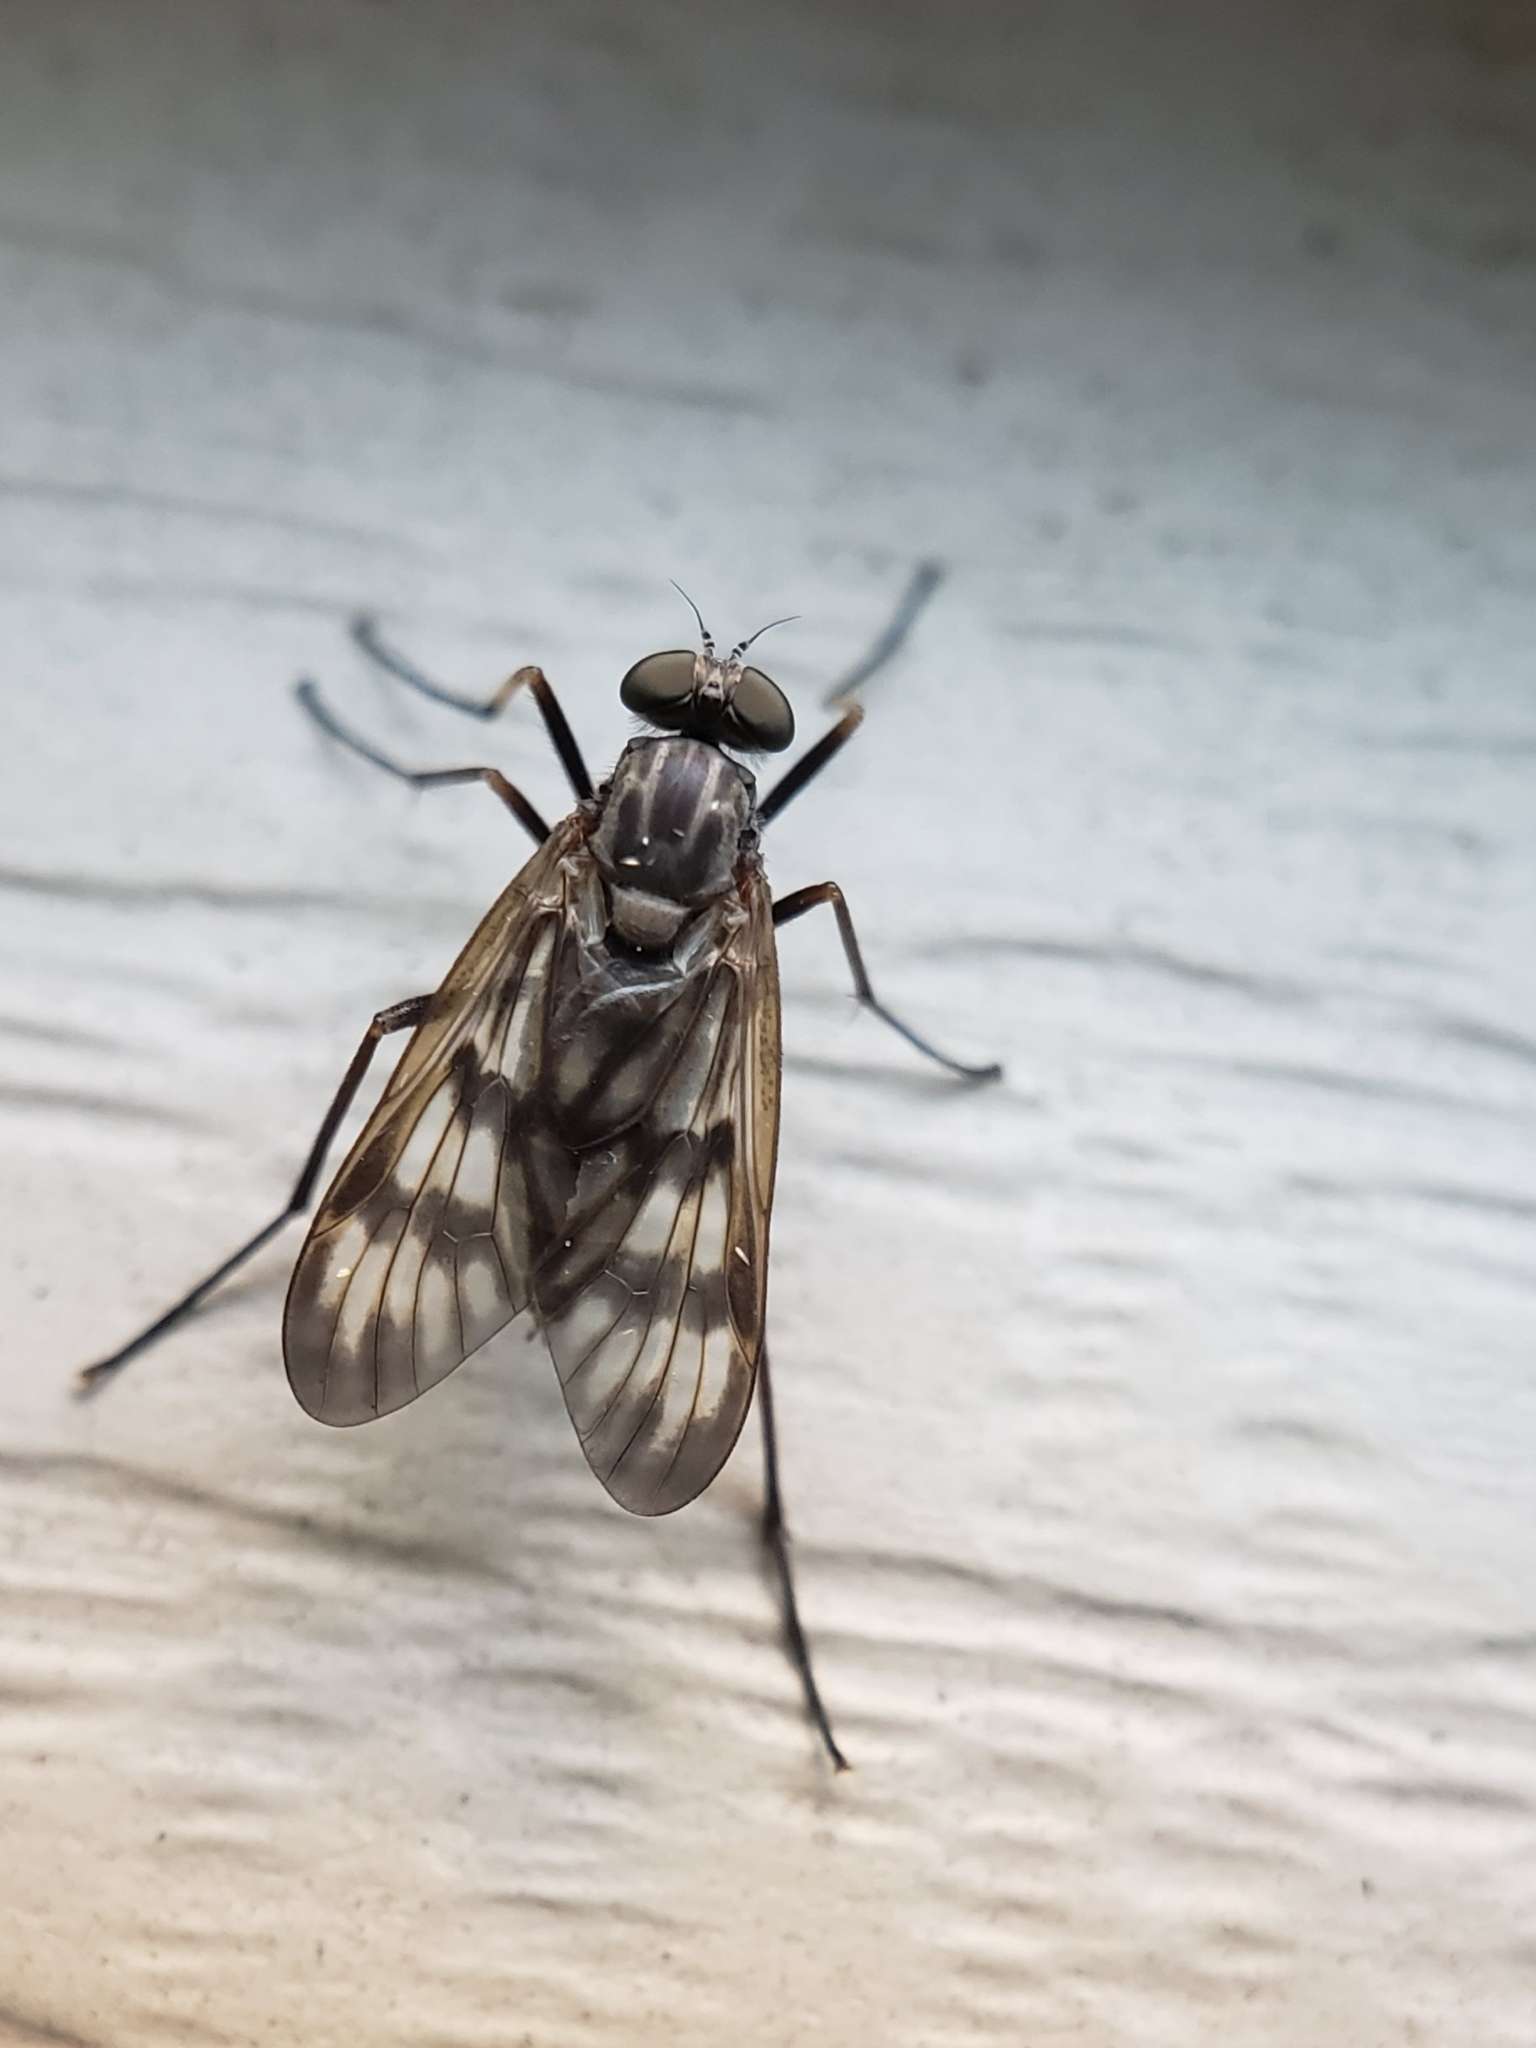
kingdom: Animalia
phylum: Arthropoda
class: Insecta
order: Diptera
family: Rhagionidae
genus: Rhagio
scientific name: Rhagio mystaceus
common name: Common snipe fly
